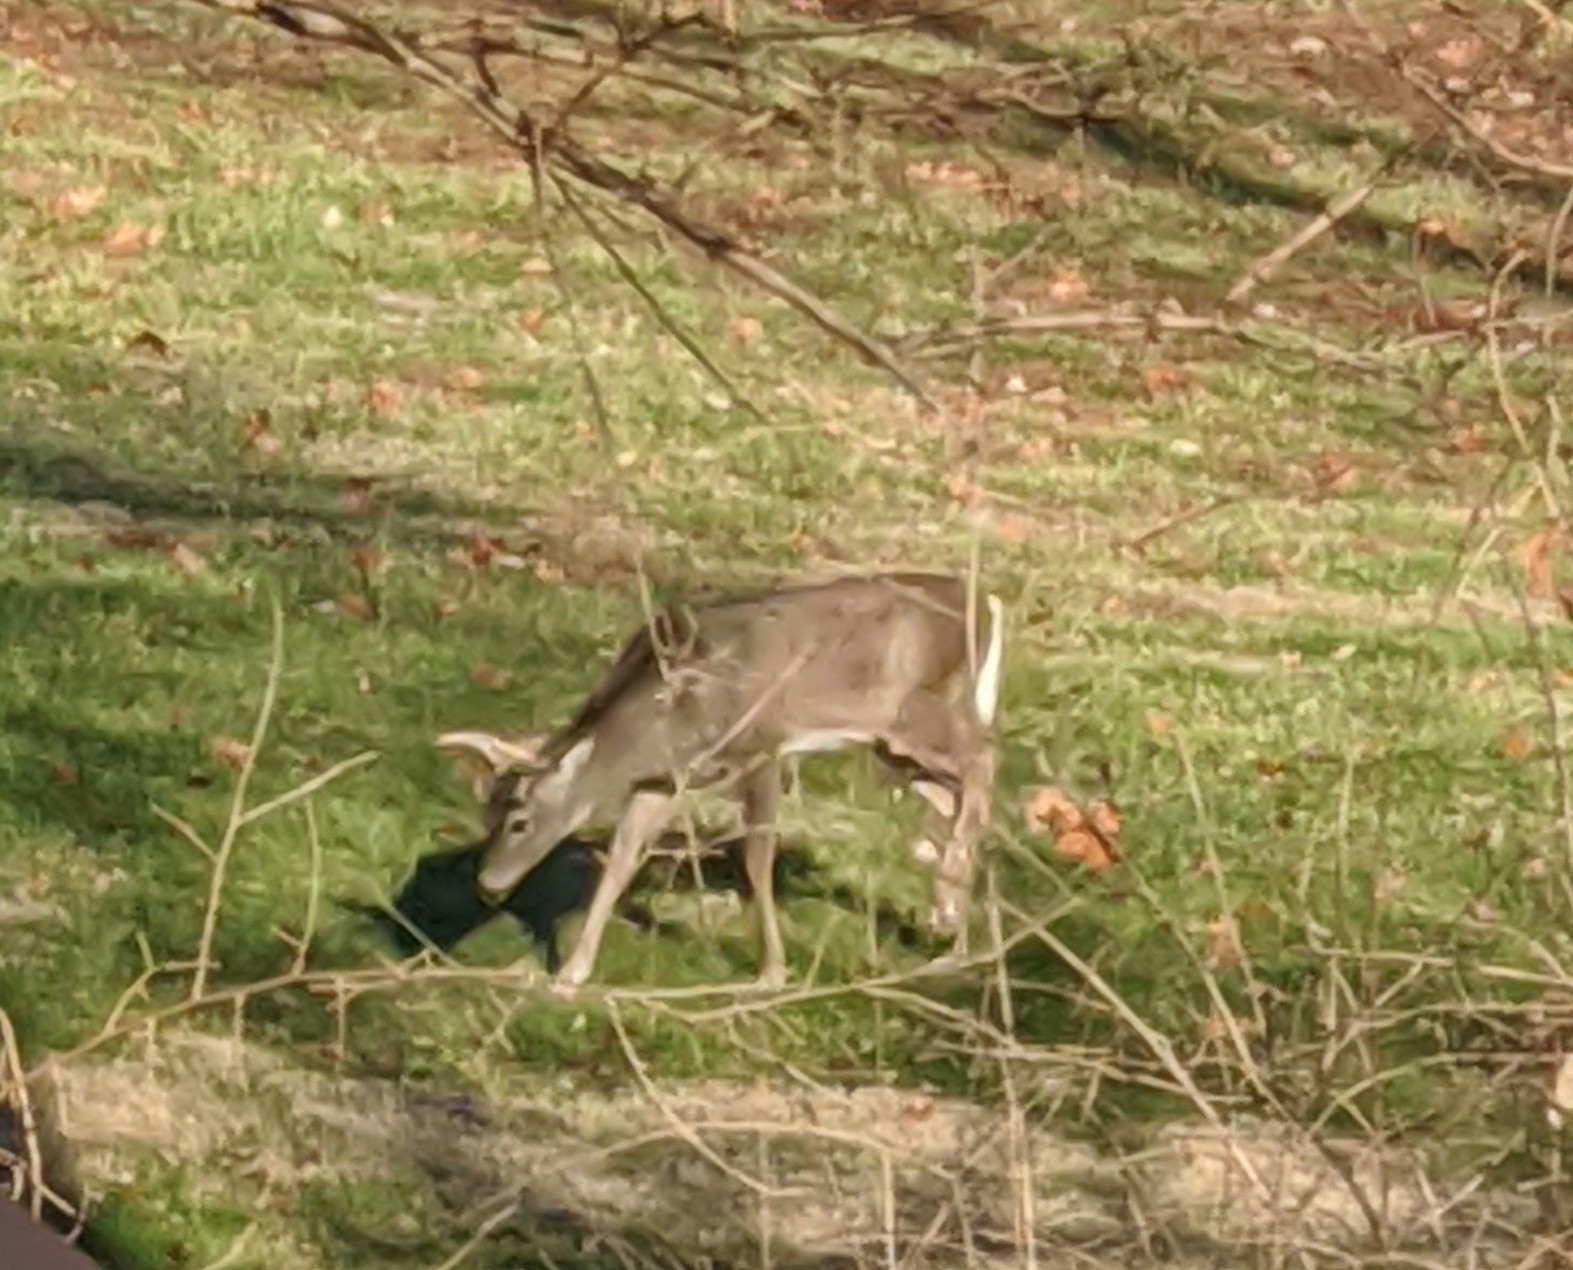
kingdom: Animalia
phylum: Chordata
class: Mammalia
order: Artiodactyla
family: Cervidae
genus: Odocoileus
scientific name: Odocoileus virginianus
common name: White-tailed deer
